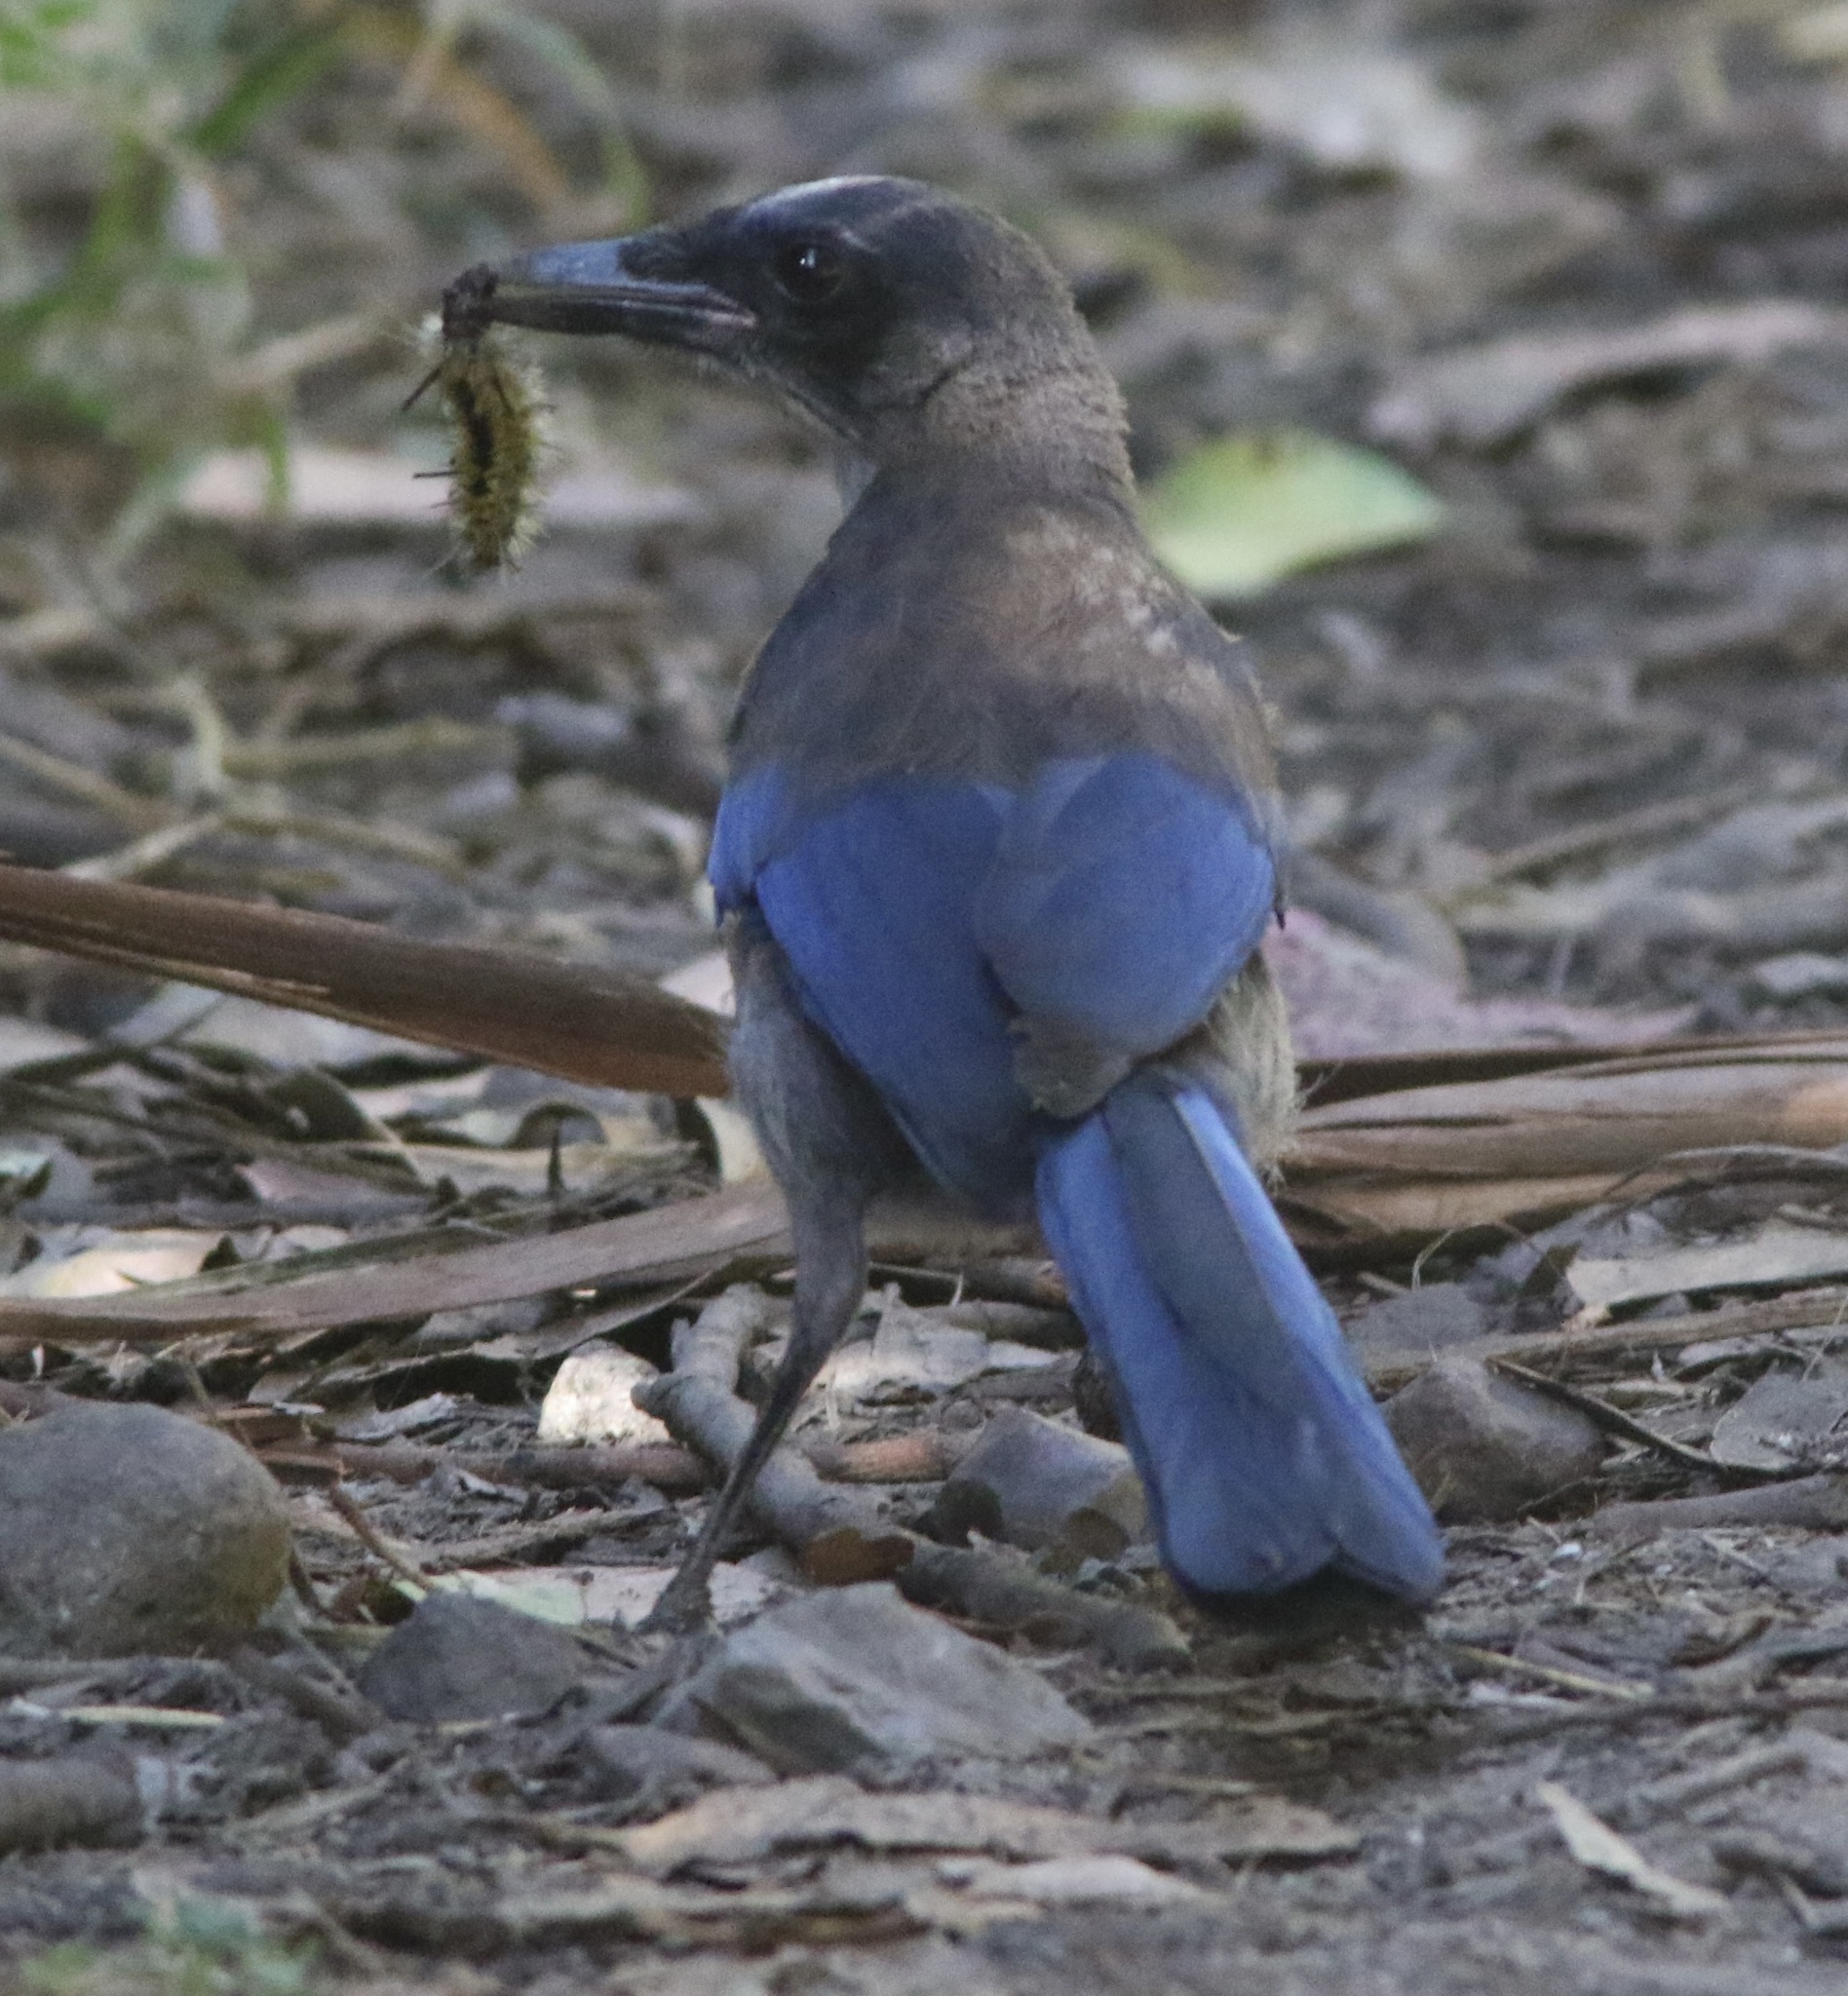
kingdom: Animalia
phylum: Chordata
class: Aves
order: Passeriformes
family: Corvidae
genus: Aphelocoma
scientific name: Aphelocoma insularis
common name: Island scrub-jay
